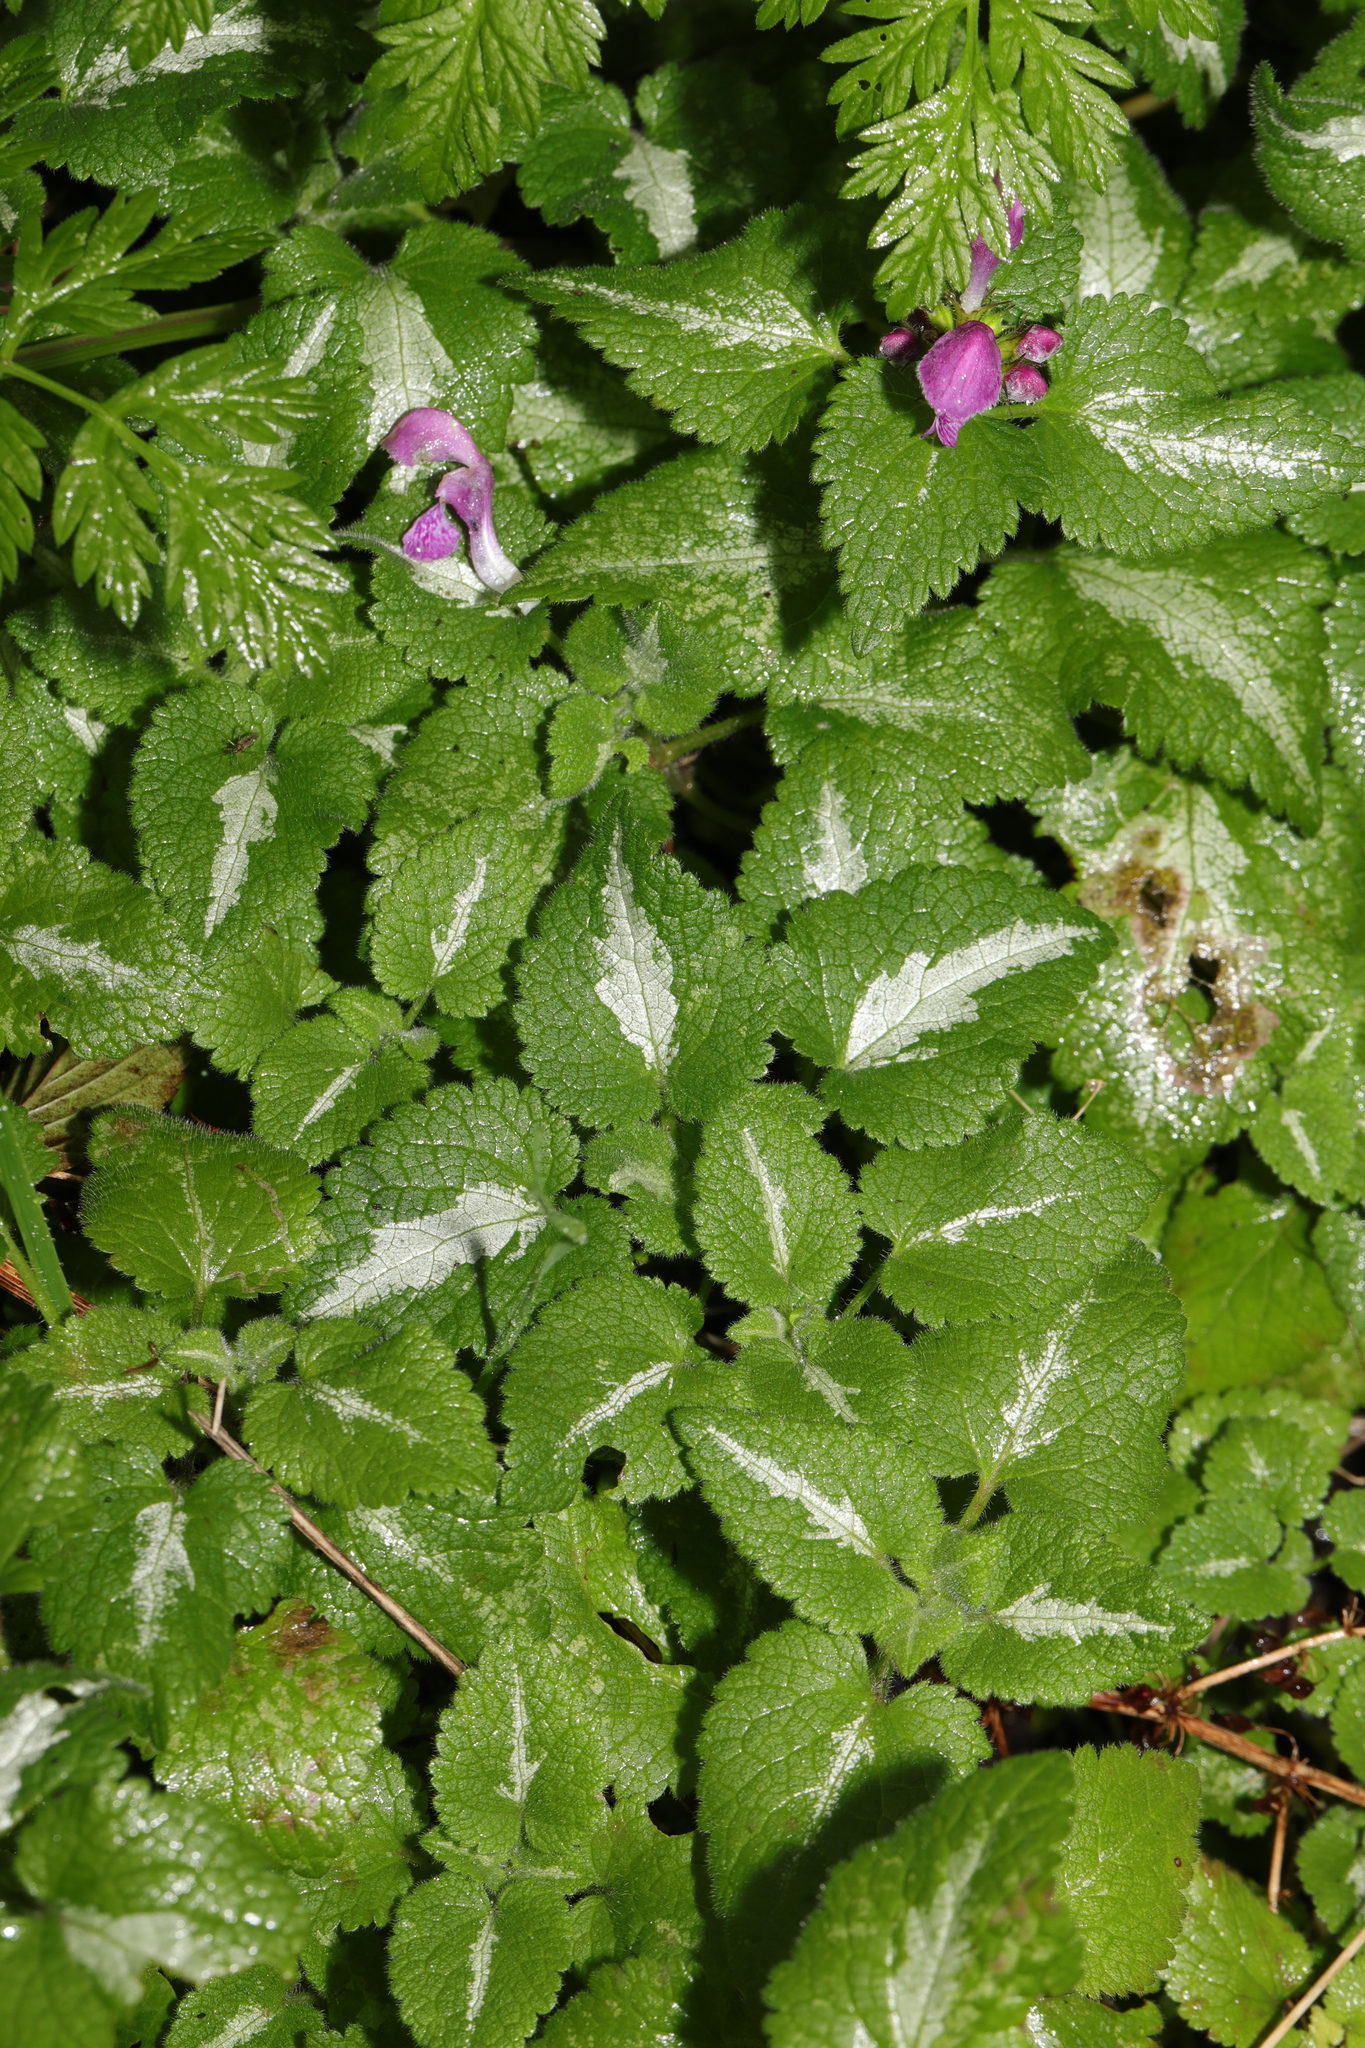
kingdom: Plantae
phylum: Tracheophyta
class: Magnoliopsida
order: Lamiales
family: Lamiaceae
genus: Lamium
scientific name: Lamium maculatum
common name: Spotted dead-nettle
